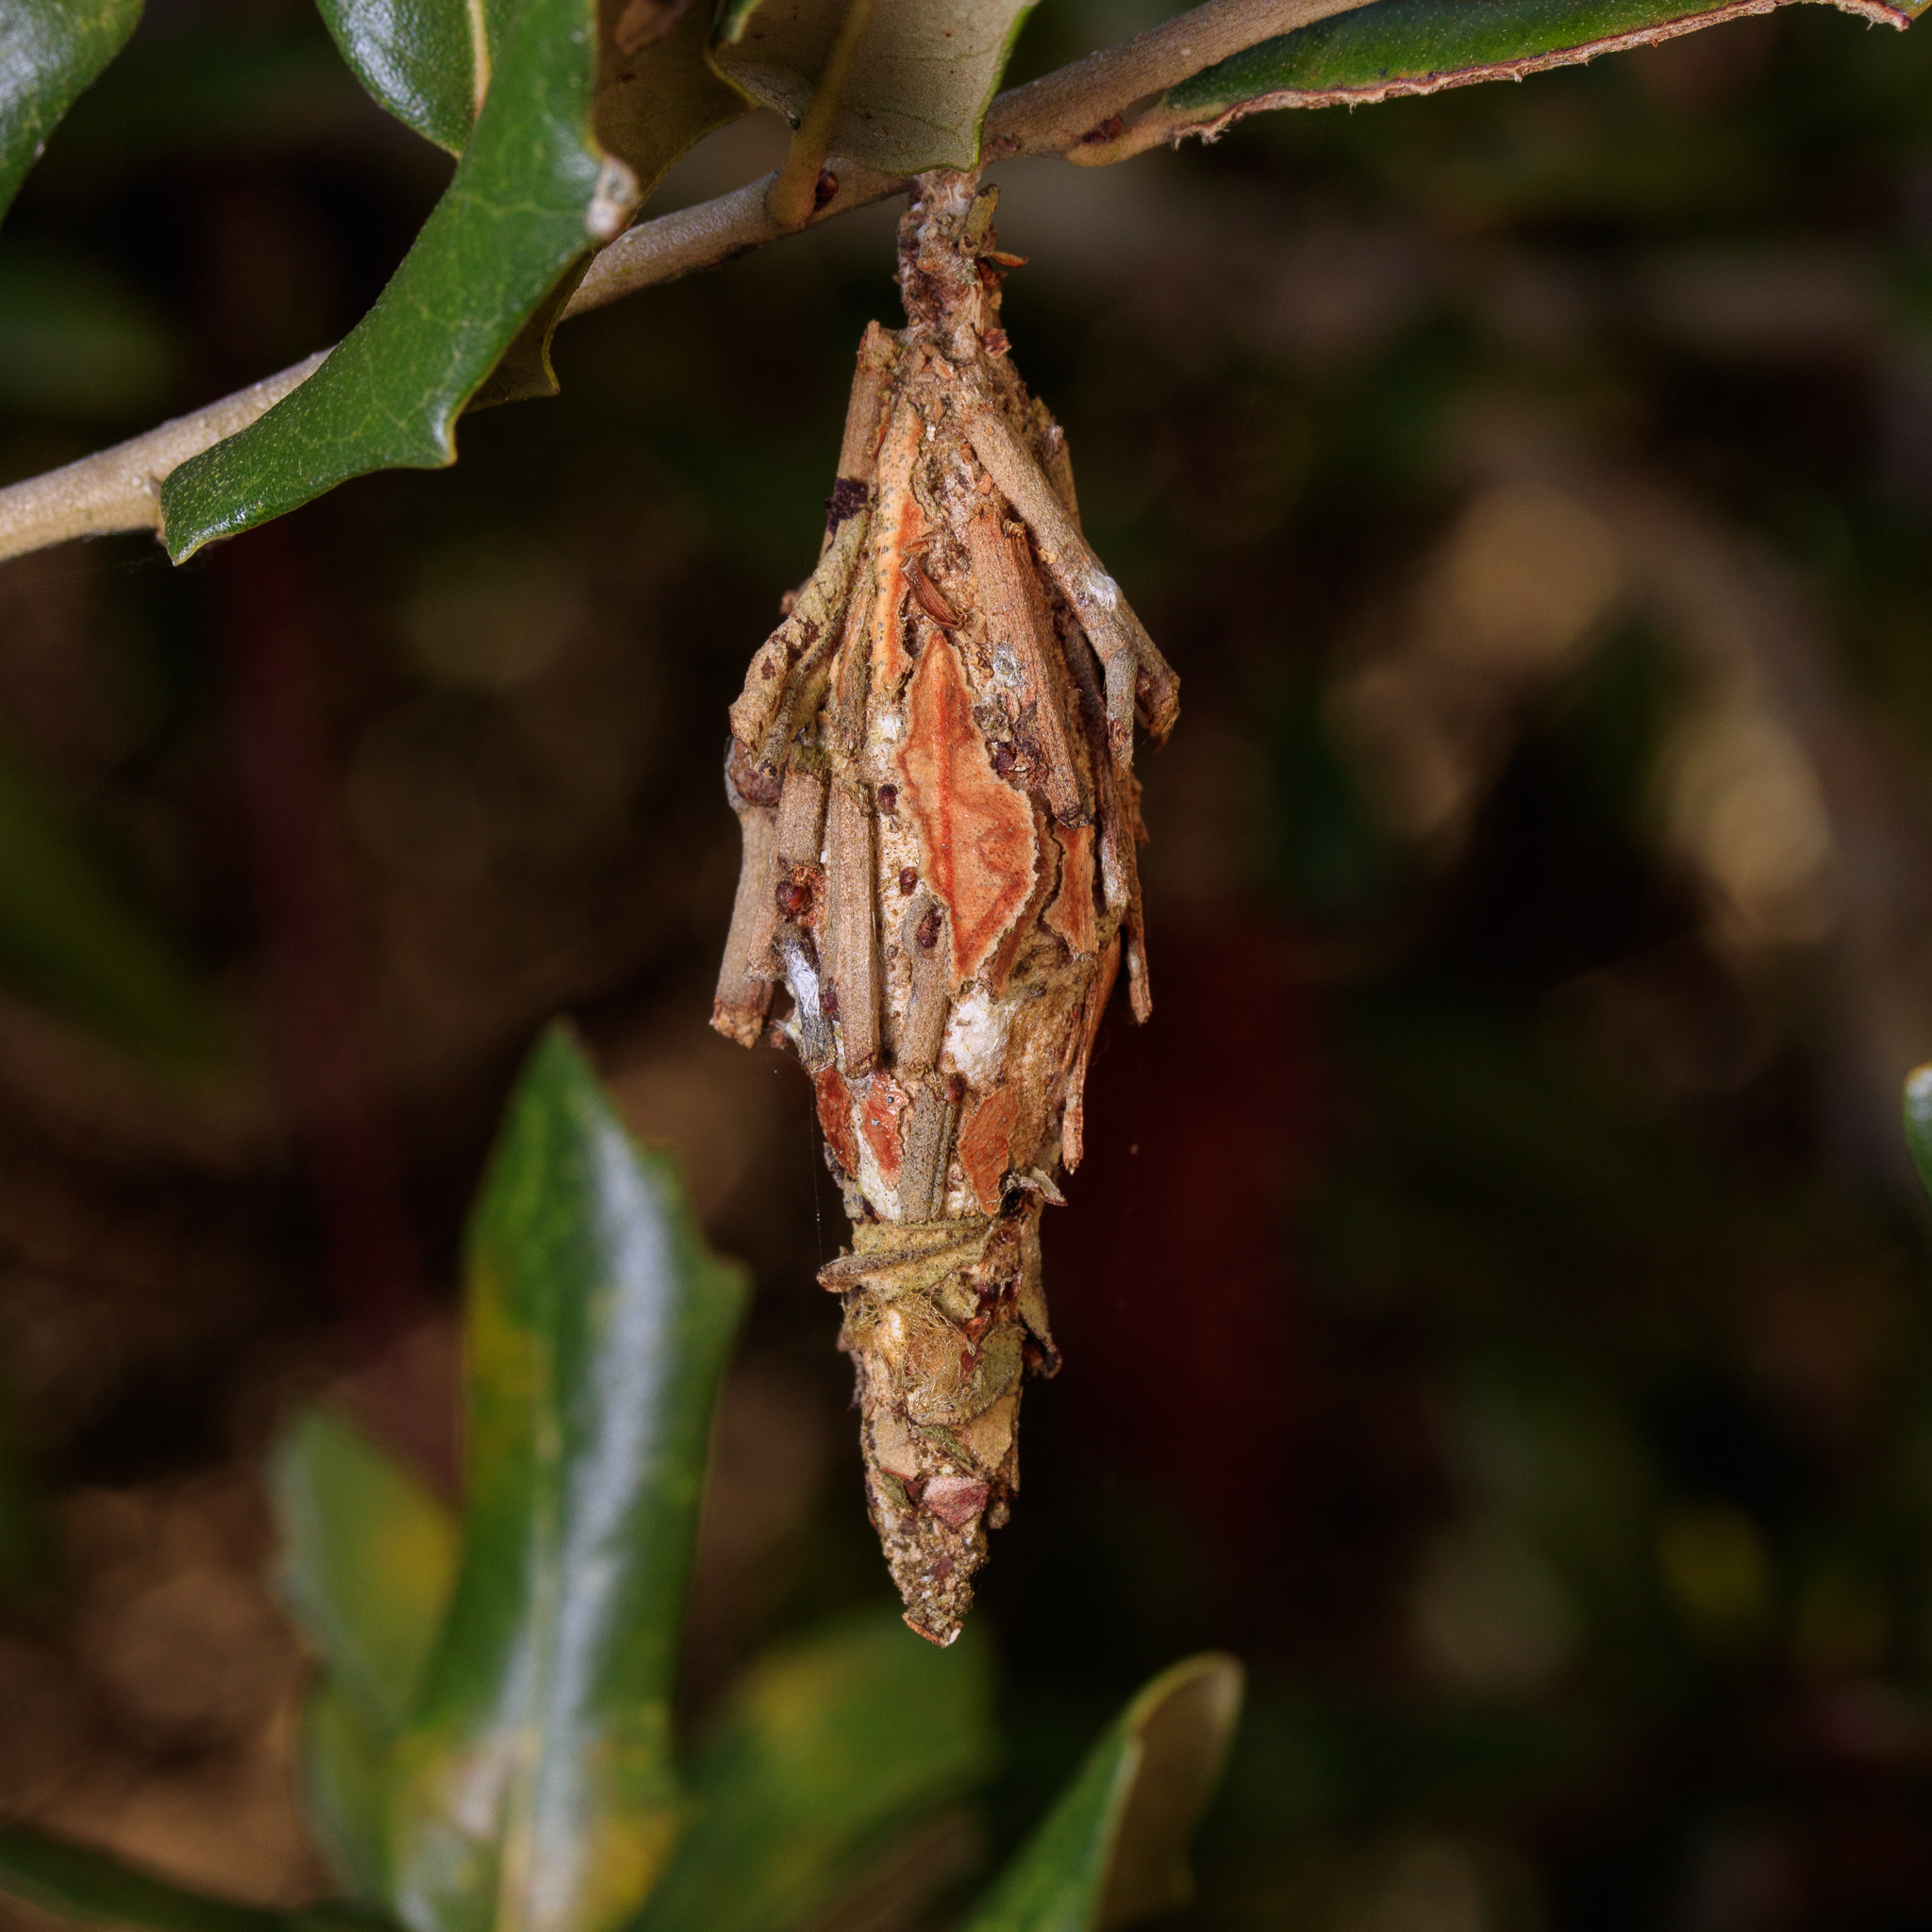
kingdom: Animalia
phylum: Arthropoda
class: Insecta
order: Lepidoptera
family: Psychidae
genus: Thyridopteryx
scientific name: Thyridopteryx ephemeraeformis
